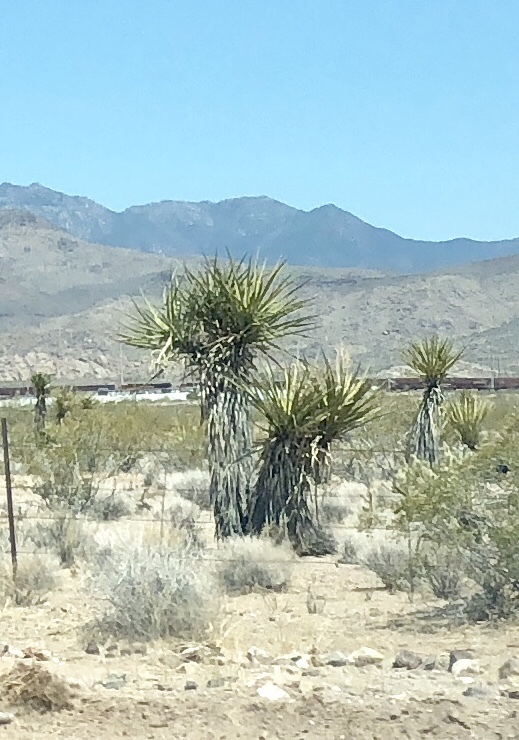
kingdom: Plantae
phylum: Tracheophyta
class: Liliopsida
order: Asparagales
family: Asparagaceae
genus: Yucca
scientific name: Yucca schidigera
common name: Mojave yucca
